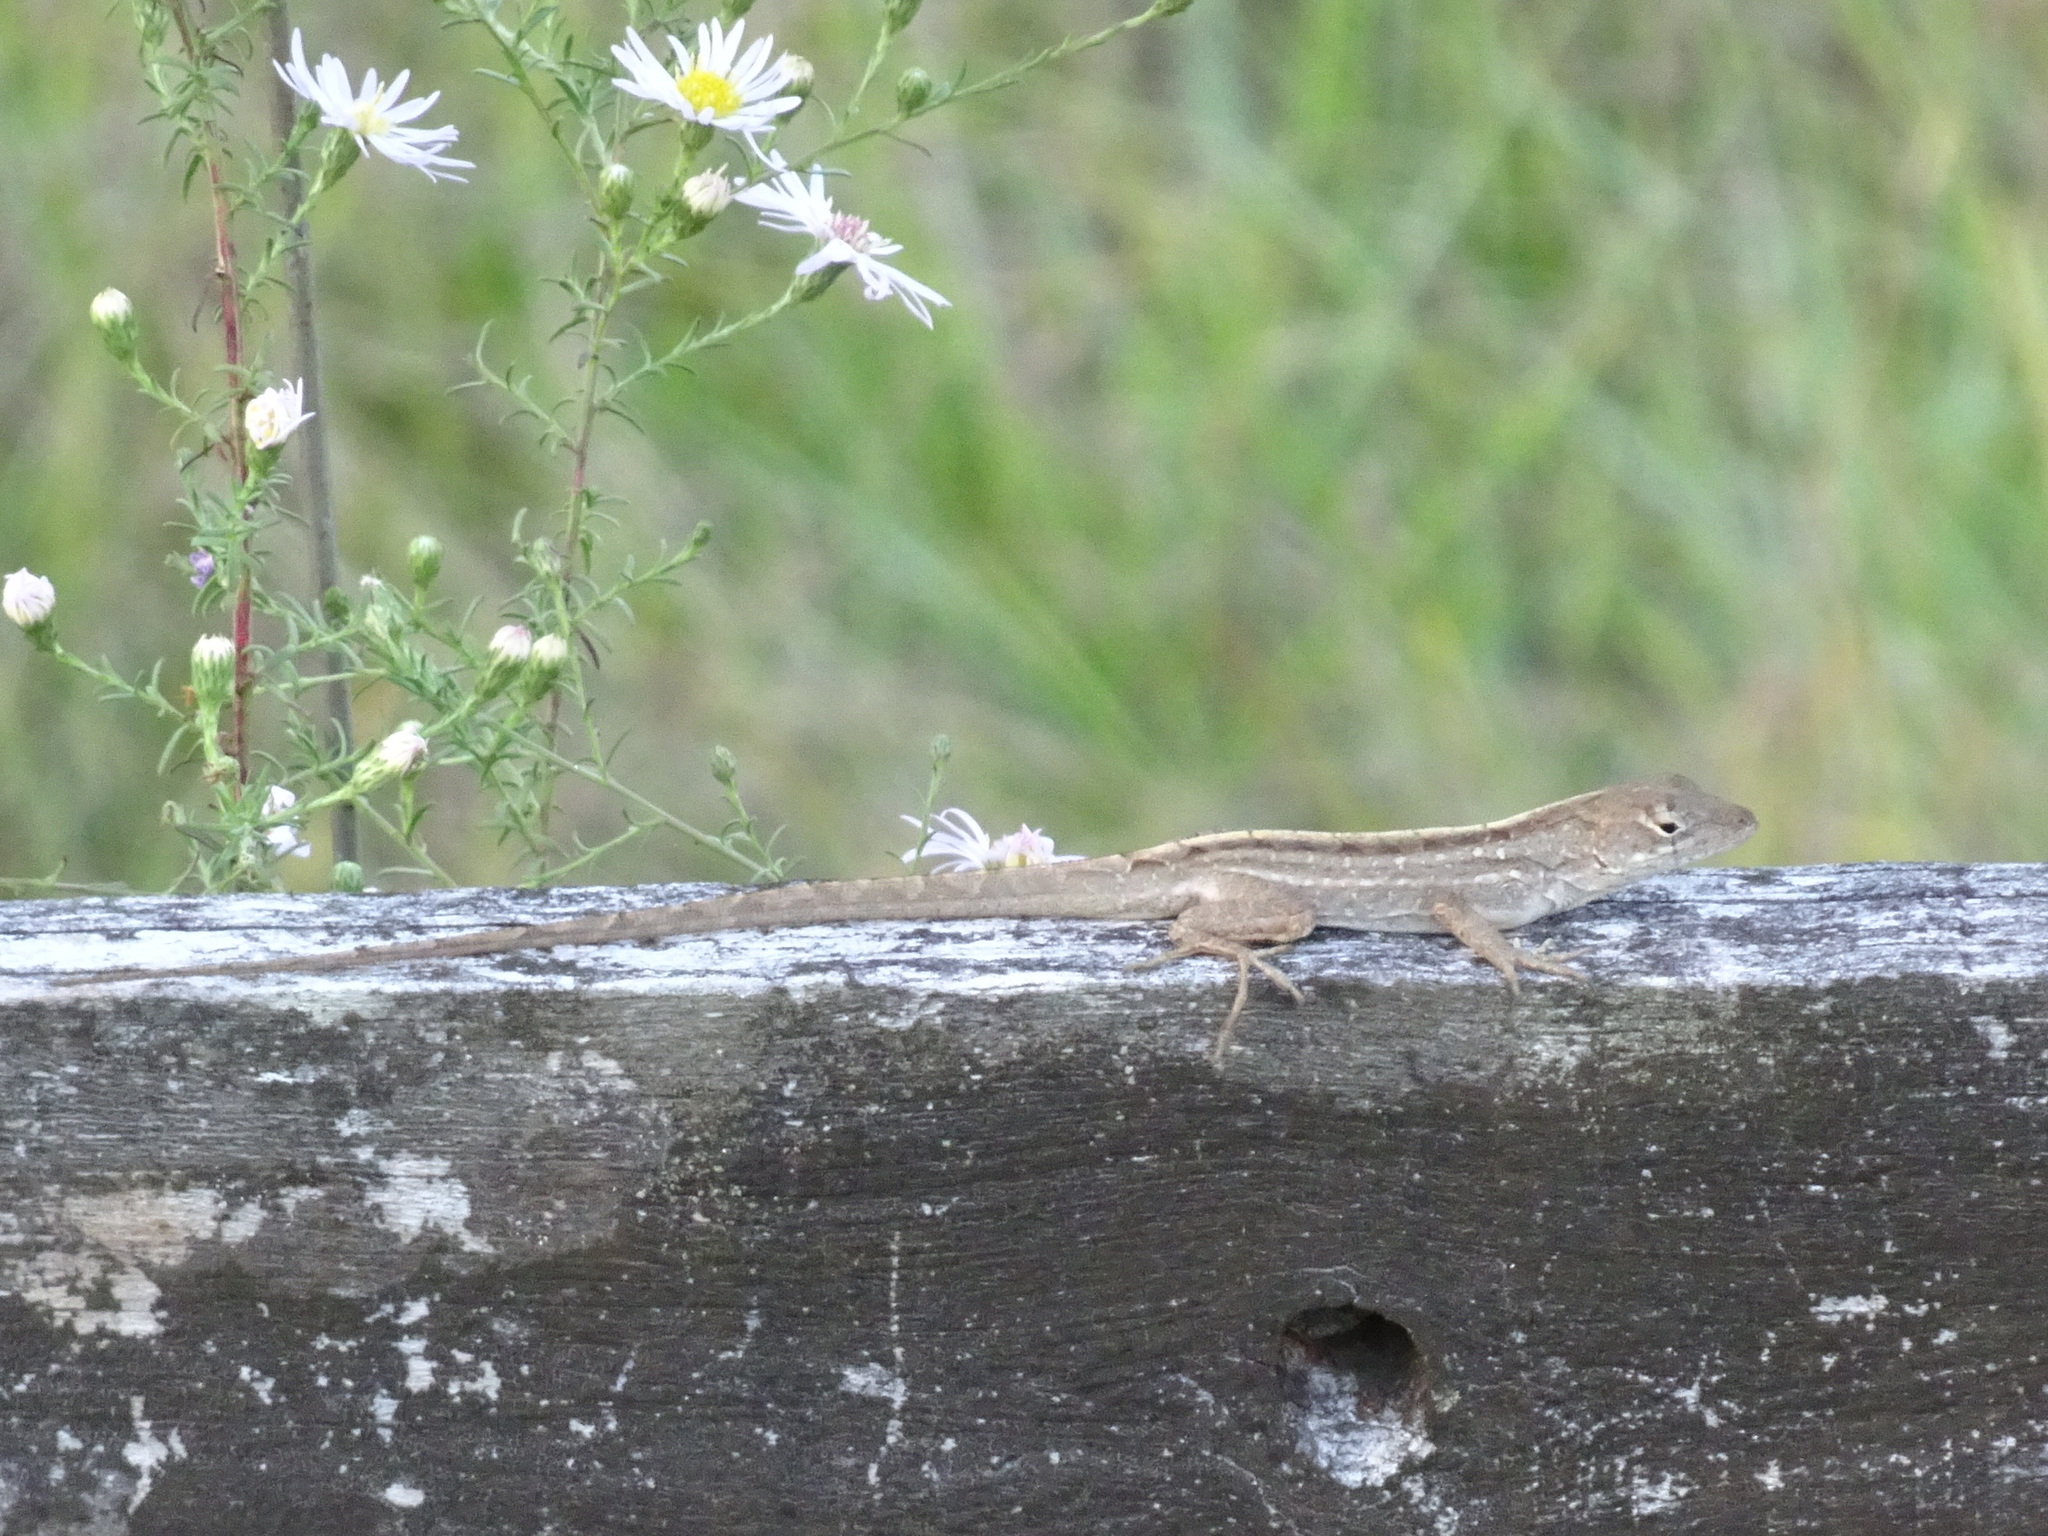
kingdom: Animalia
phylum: Chordata
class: Squamata
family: Dactyloidae
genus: Anolis
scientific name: Anolis sagrei
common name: Brown anole
